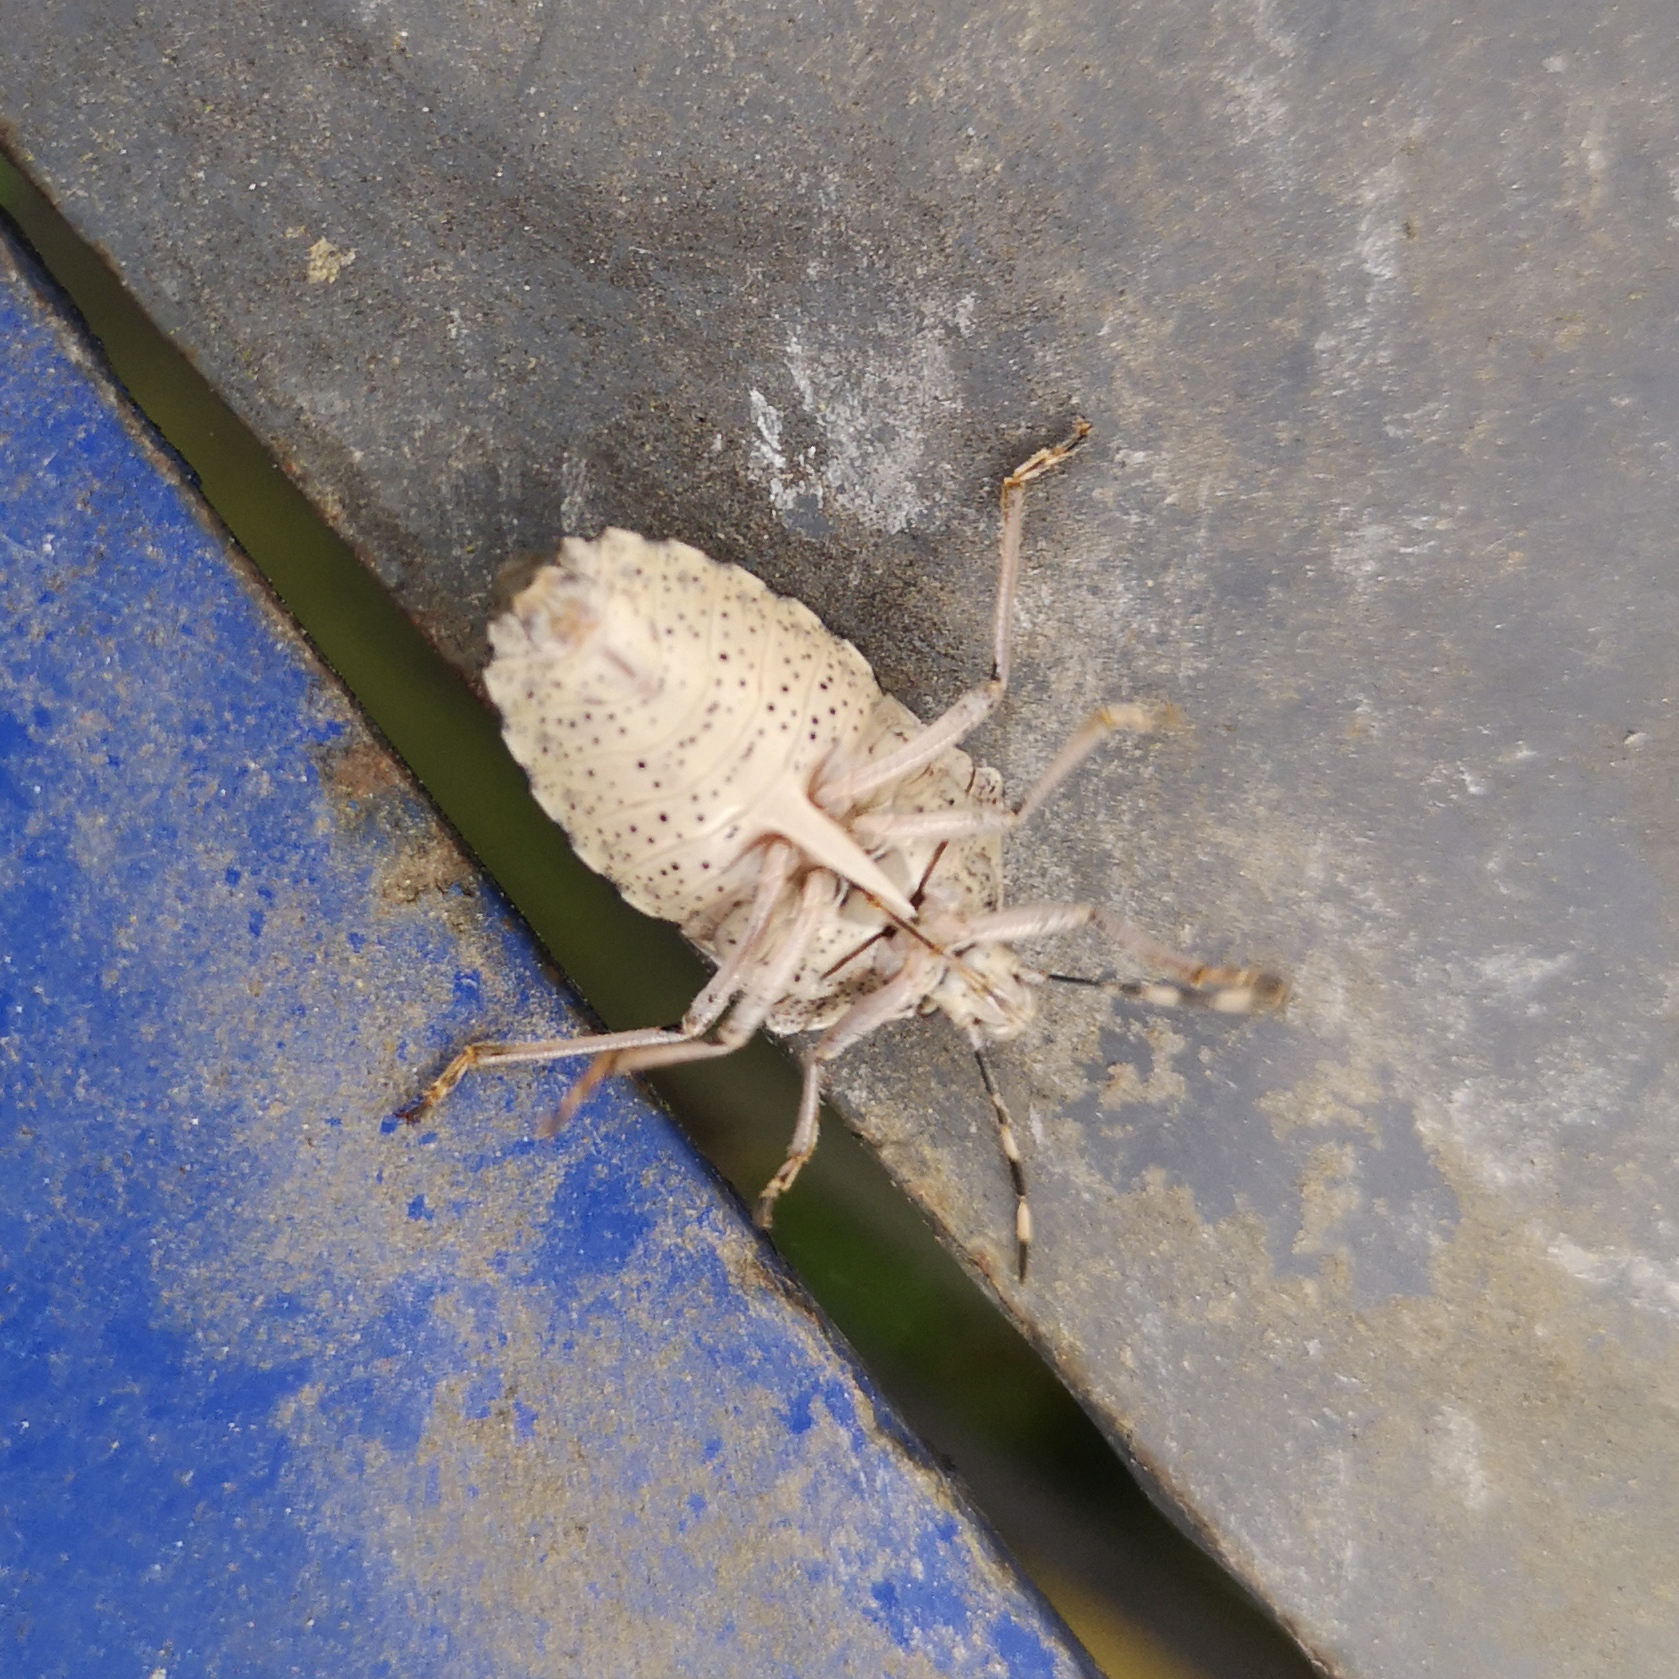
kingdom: Animalia
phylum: Arthropoda
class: Insecta
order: Hemiptera
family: Pentatomidae
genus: Rhaphigaster
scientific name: Rhaphigaster nebulosa
